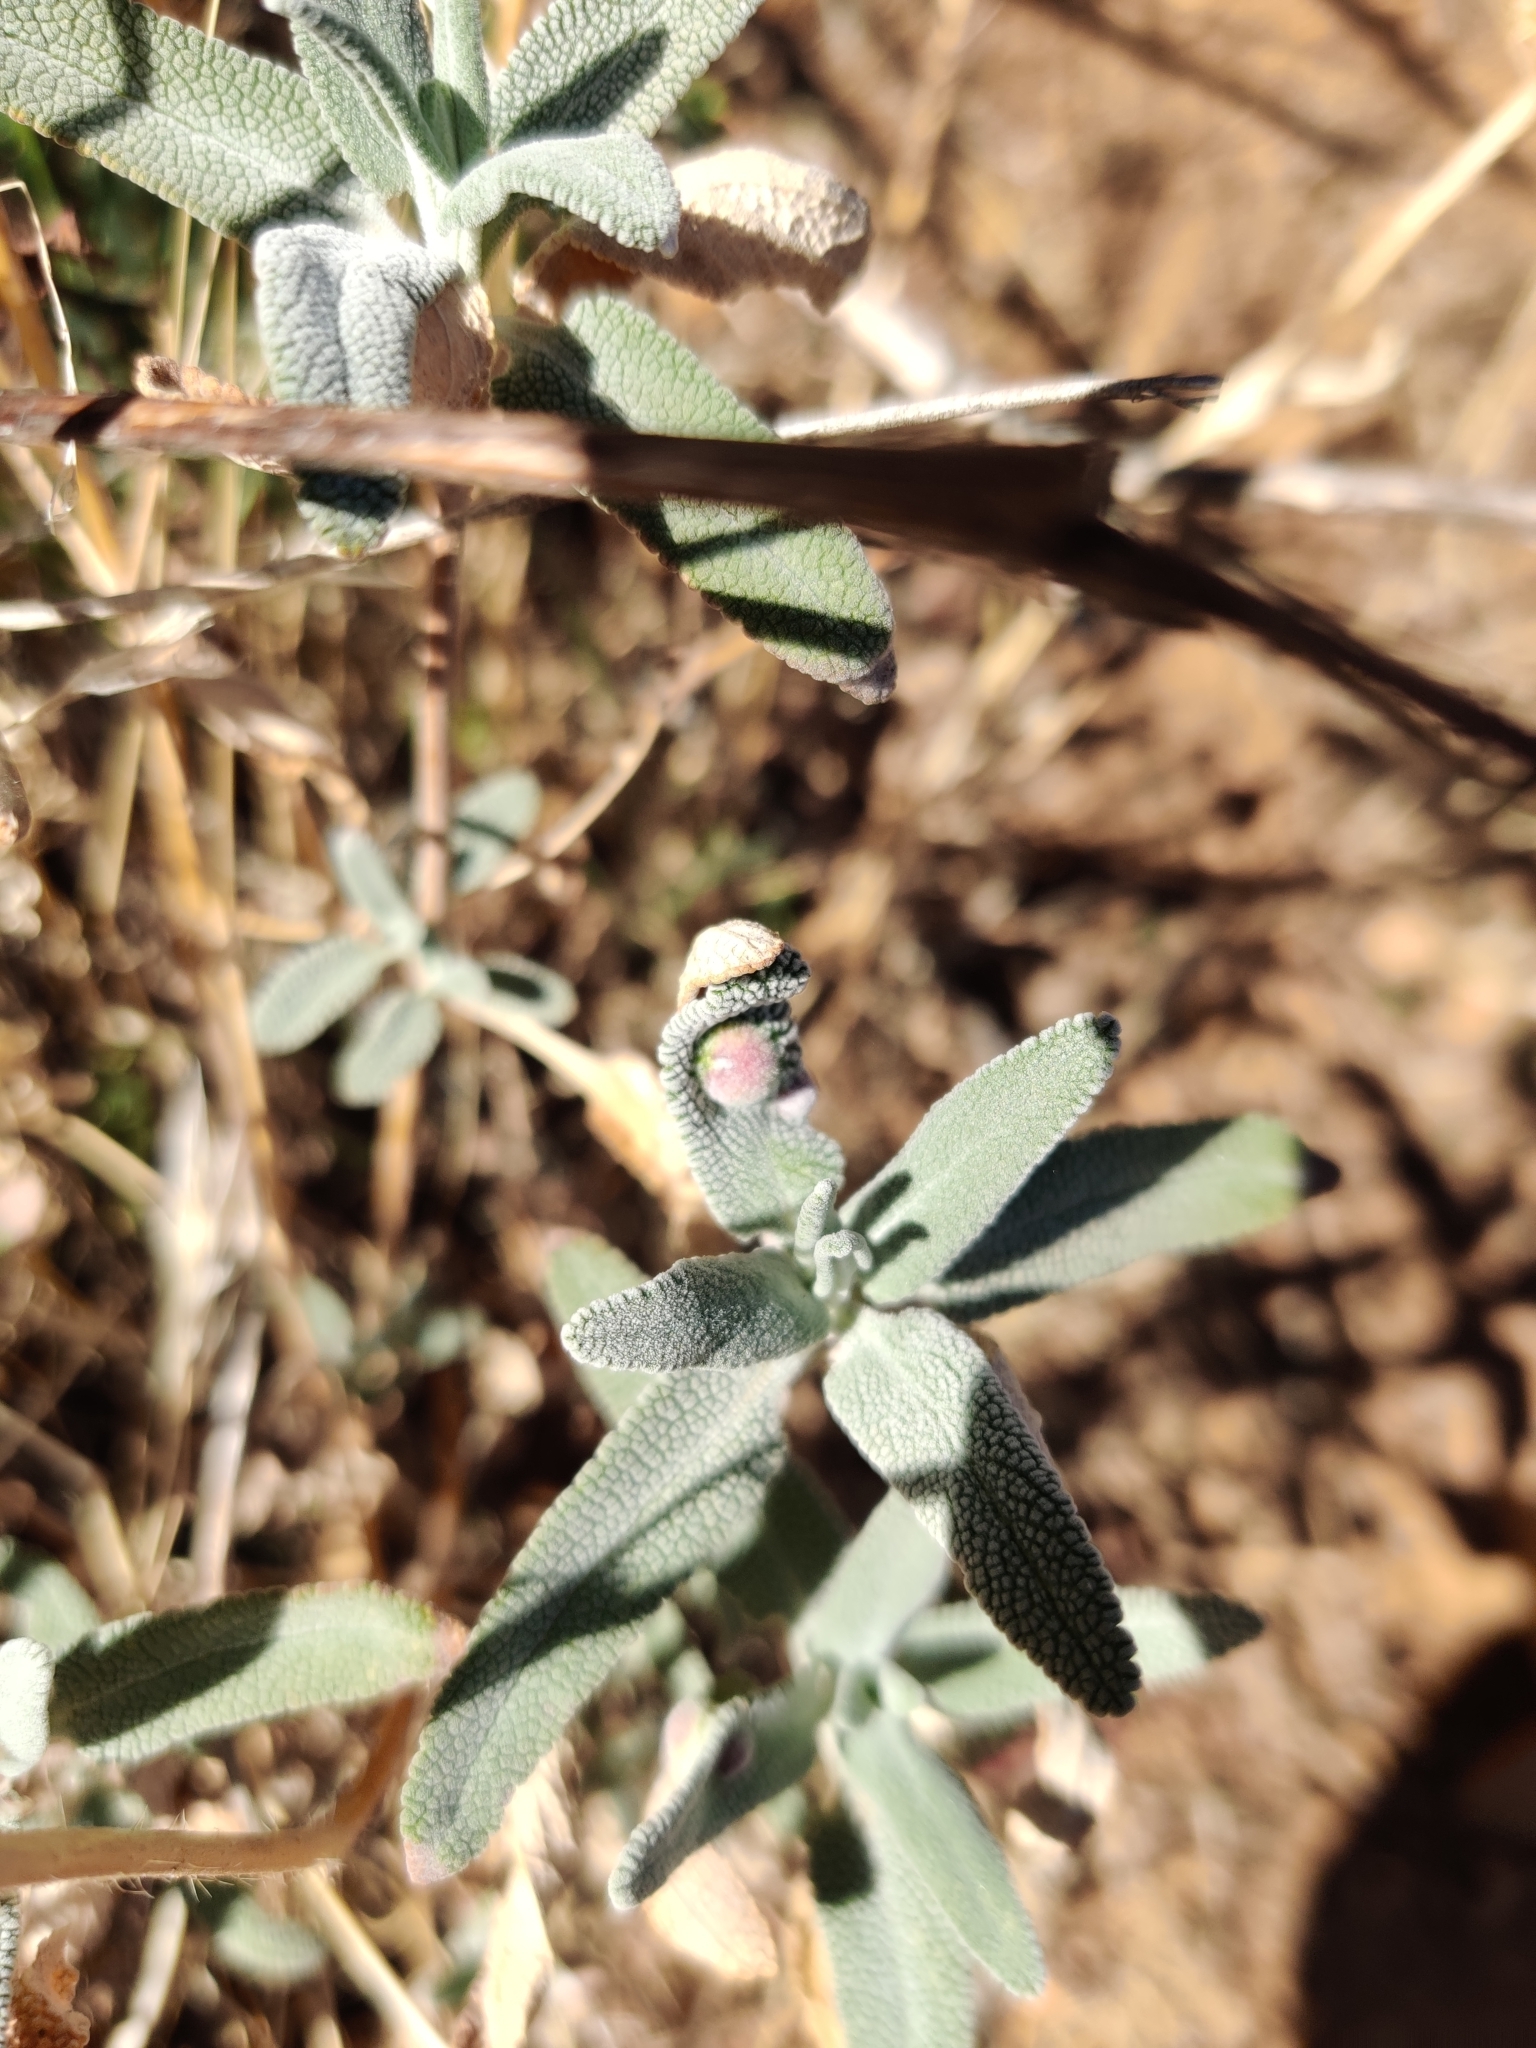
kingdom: Plantae
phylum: Tracheophyta
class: Magnoliopsida
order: Lamiales
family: Lamiaceae
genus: Salvia
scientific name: Salvia leucophylla
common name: Purple sage
